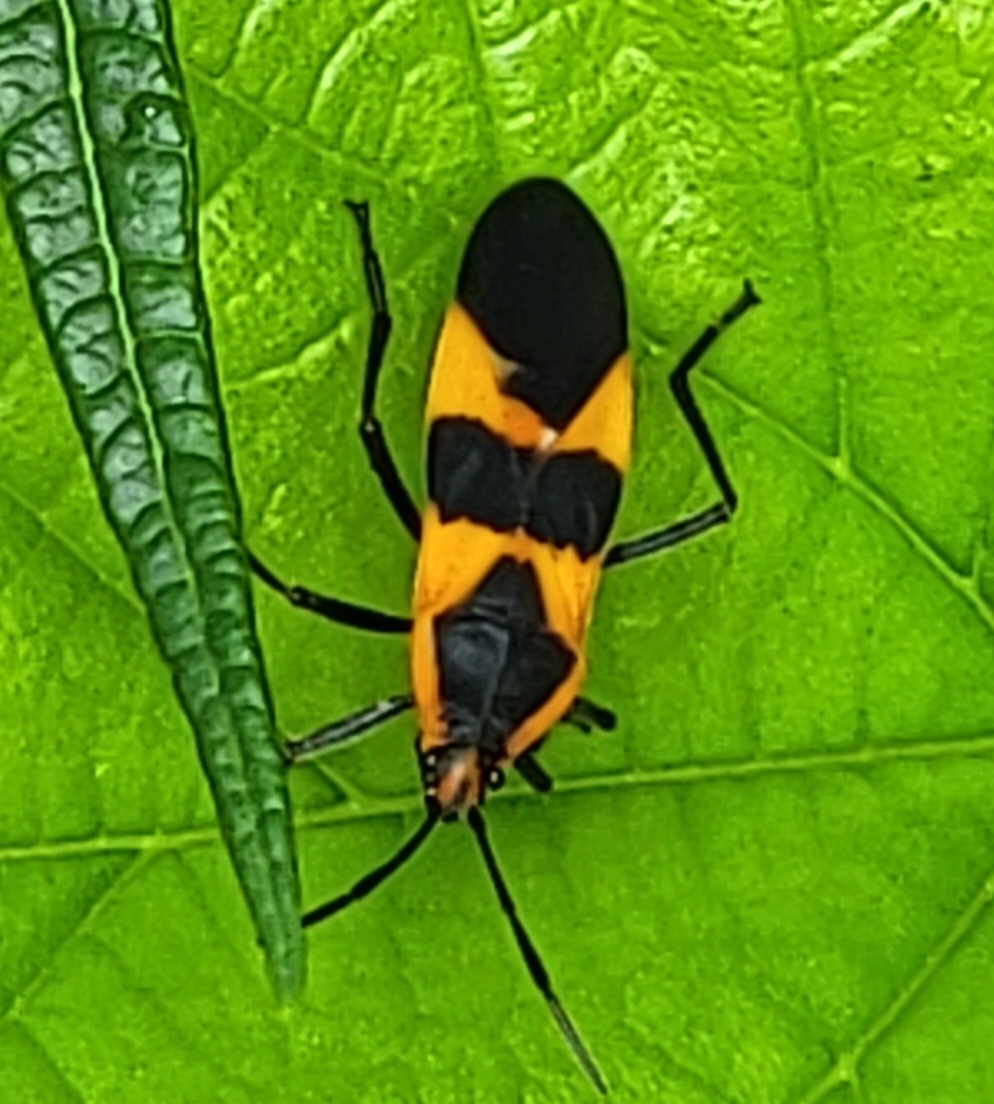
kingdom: Animalia
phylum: Arthropoda
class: Insecta
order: Hemiptera
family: Lygaeidae
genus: Oncopeltus
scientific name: Oncopeltus fasciatus
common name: Large milkweed bug
